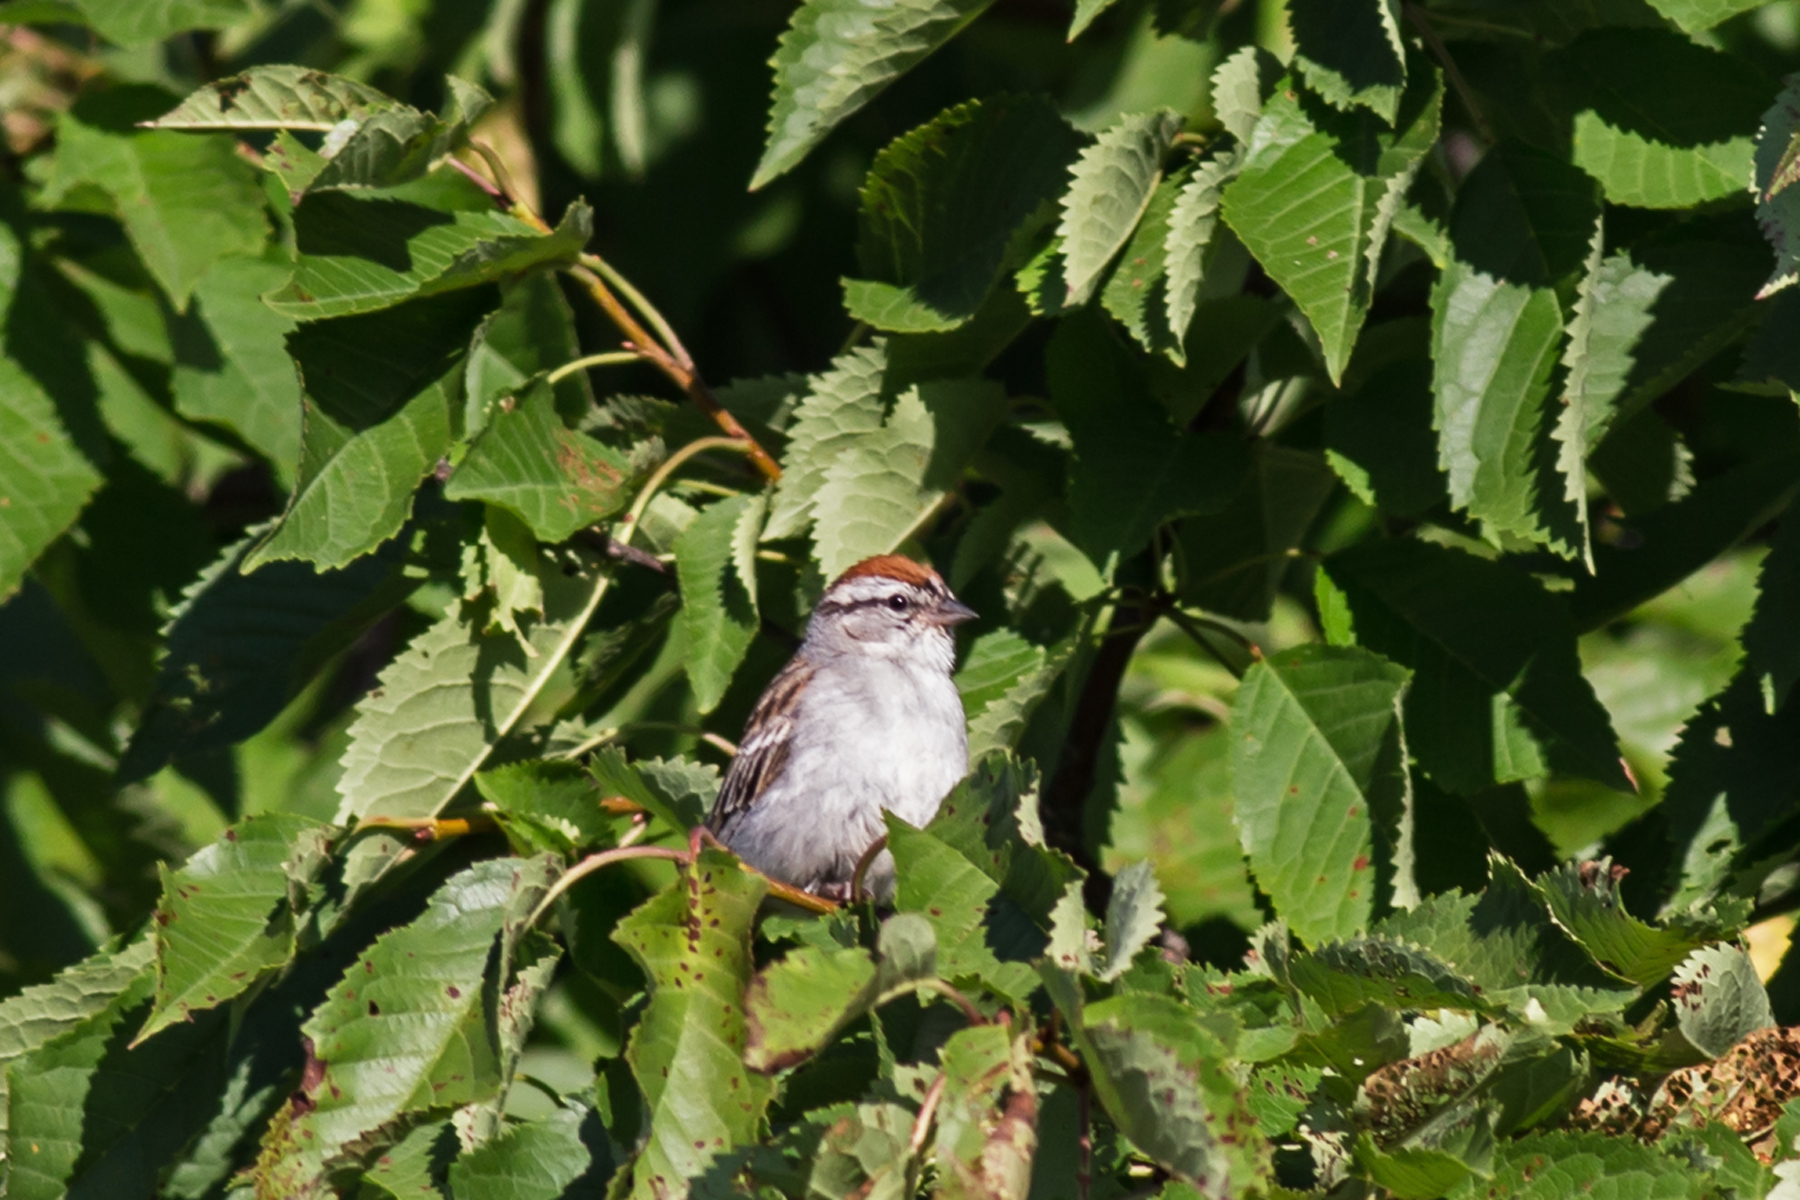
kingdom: Animalia
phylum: Chordata
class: Aves
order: Passeriformes
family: Passerellidae
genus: Spizella
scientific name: Spizella passerina
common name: Chipping sparrow
